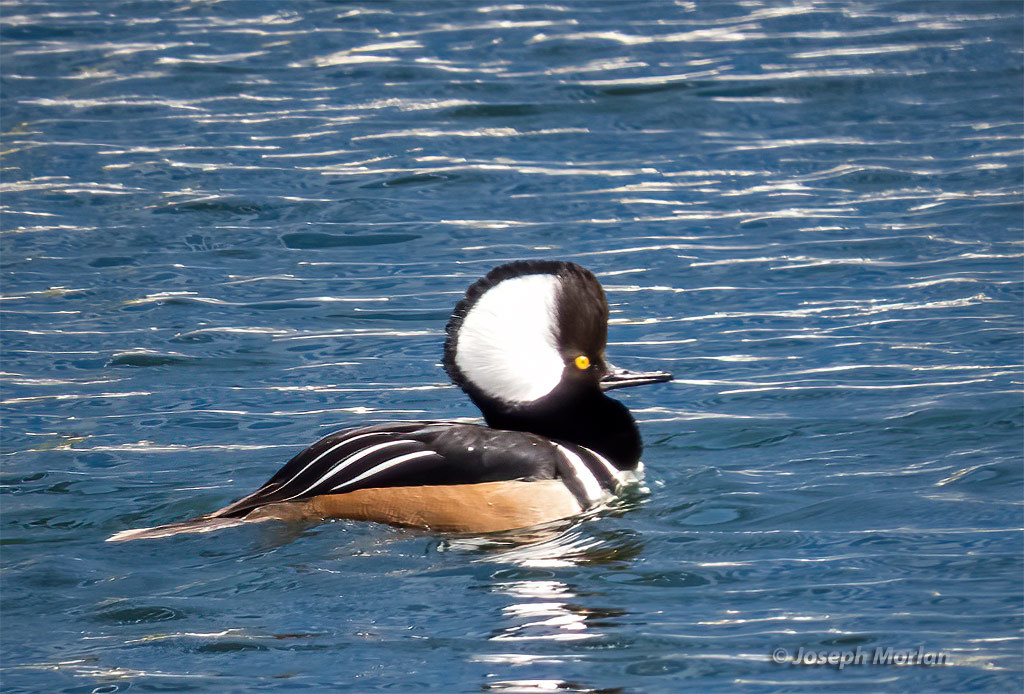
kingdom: Animalia
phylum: Chordata
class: Aves
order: Anseriformes
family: Anatidae
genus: Lophodytes
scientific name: Lophodytes cucullatus
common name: Hooded merganser
